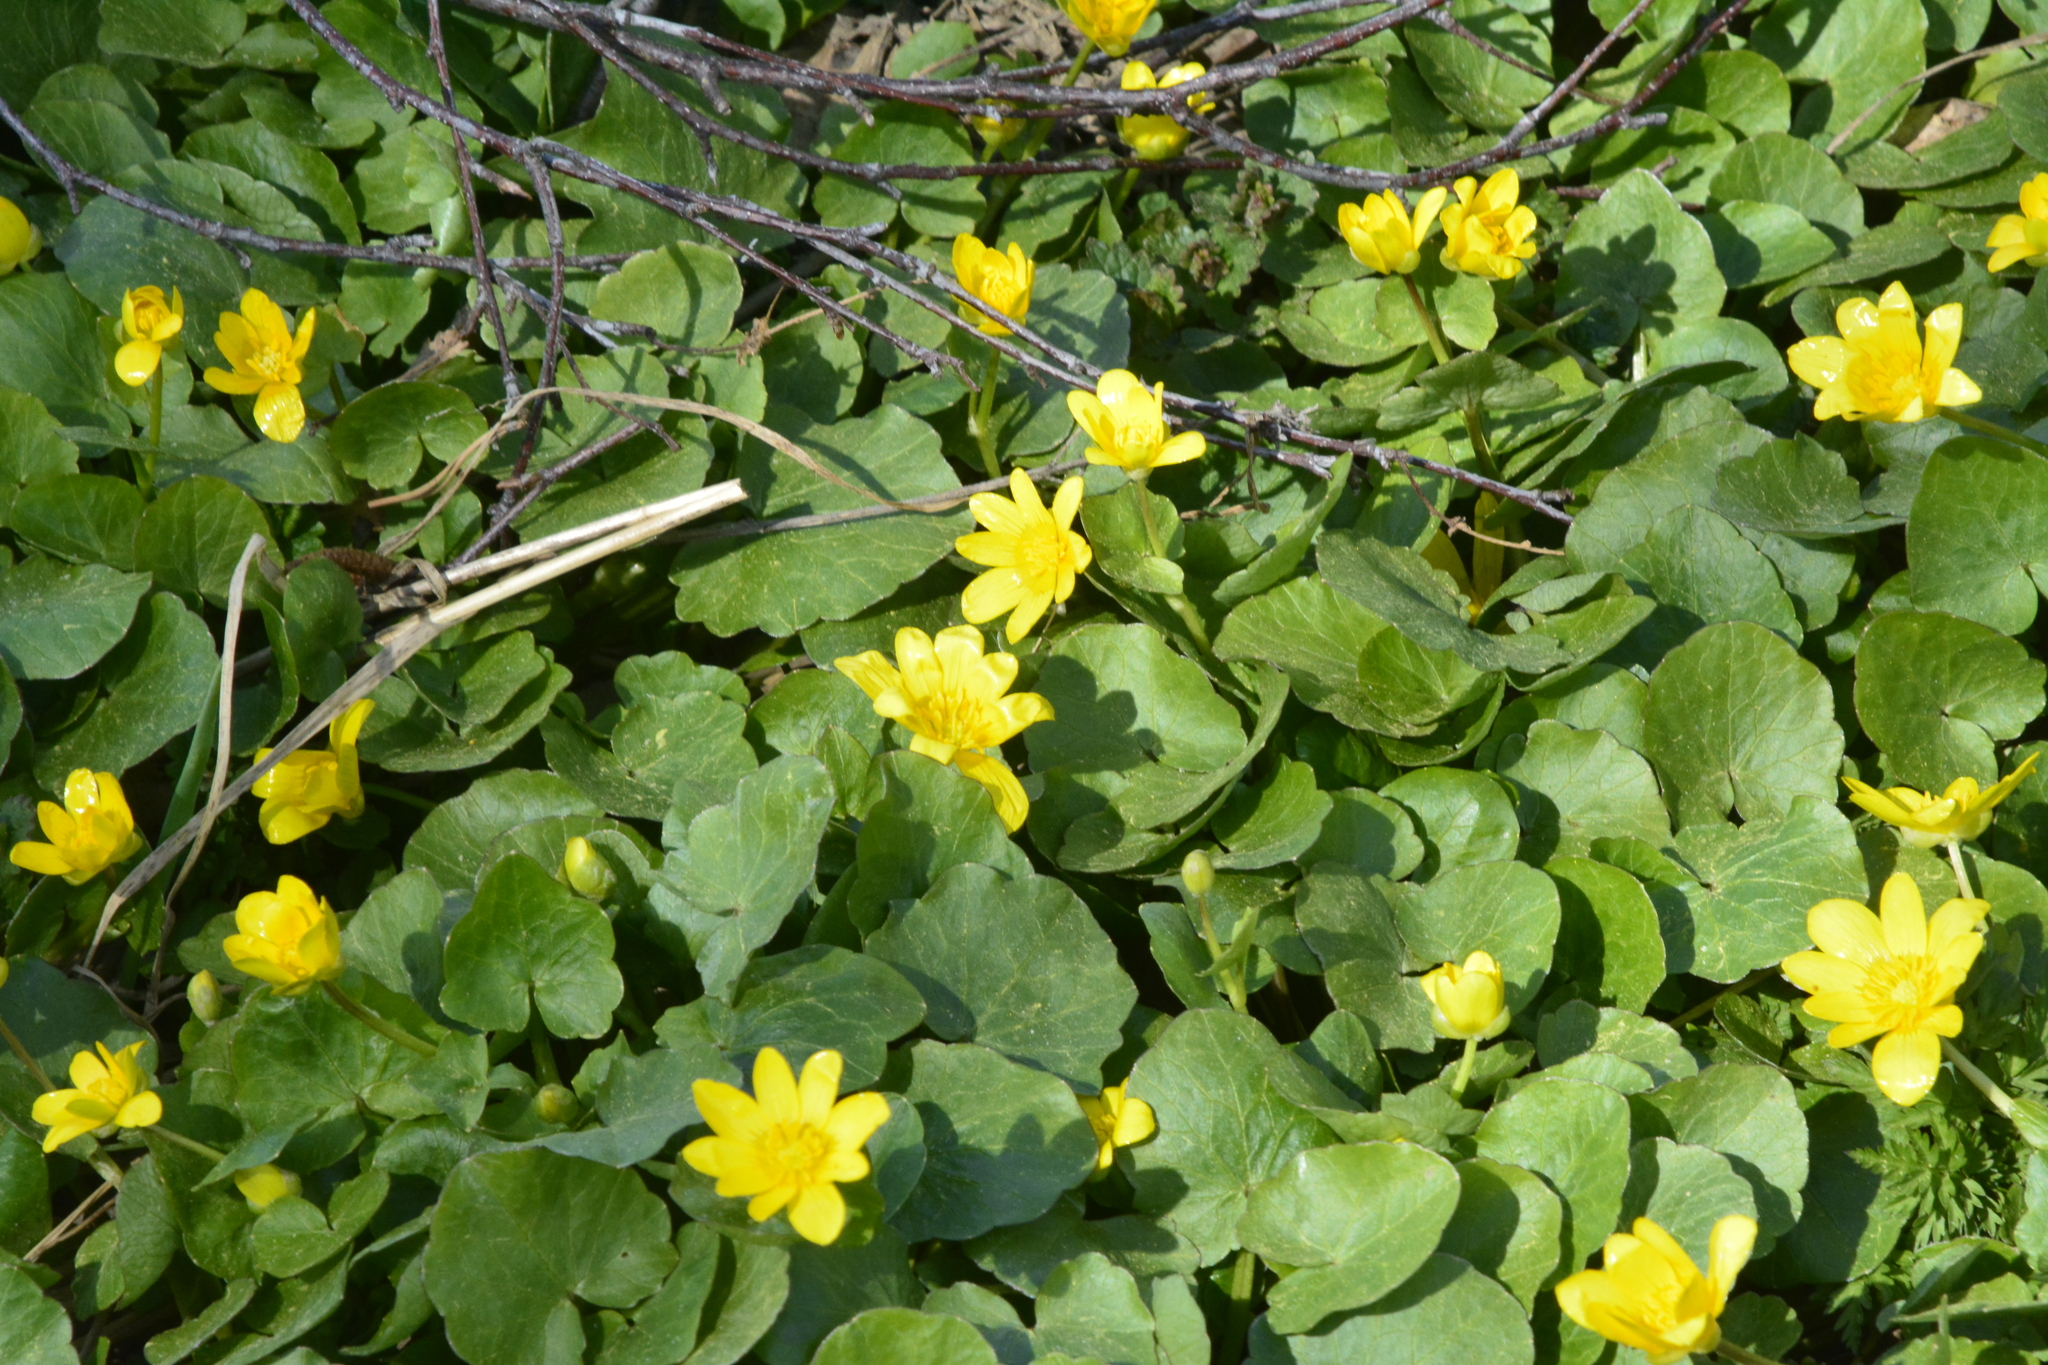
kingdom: Plantae
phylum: Tracheophyta
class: Magnoliopsida
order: Ranunculales
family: Ranunculaceae
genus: Ficaria
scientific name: Ficaria verna
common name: Lesser celandine
